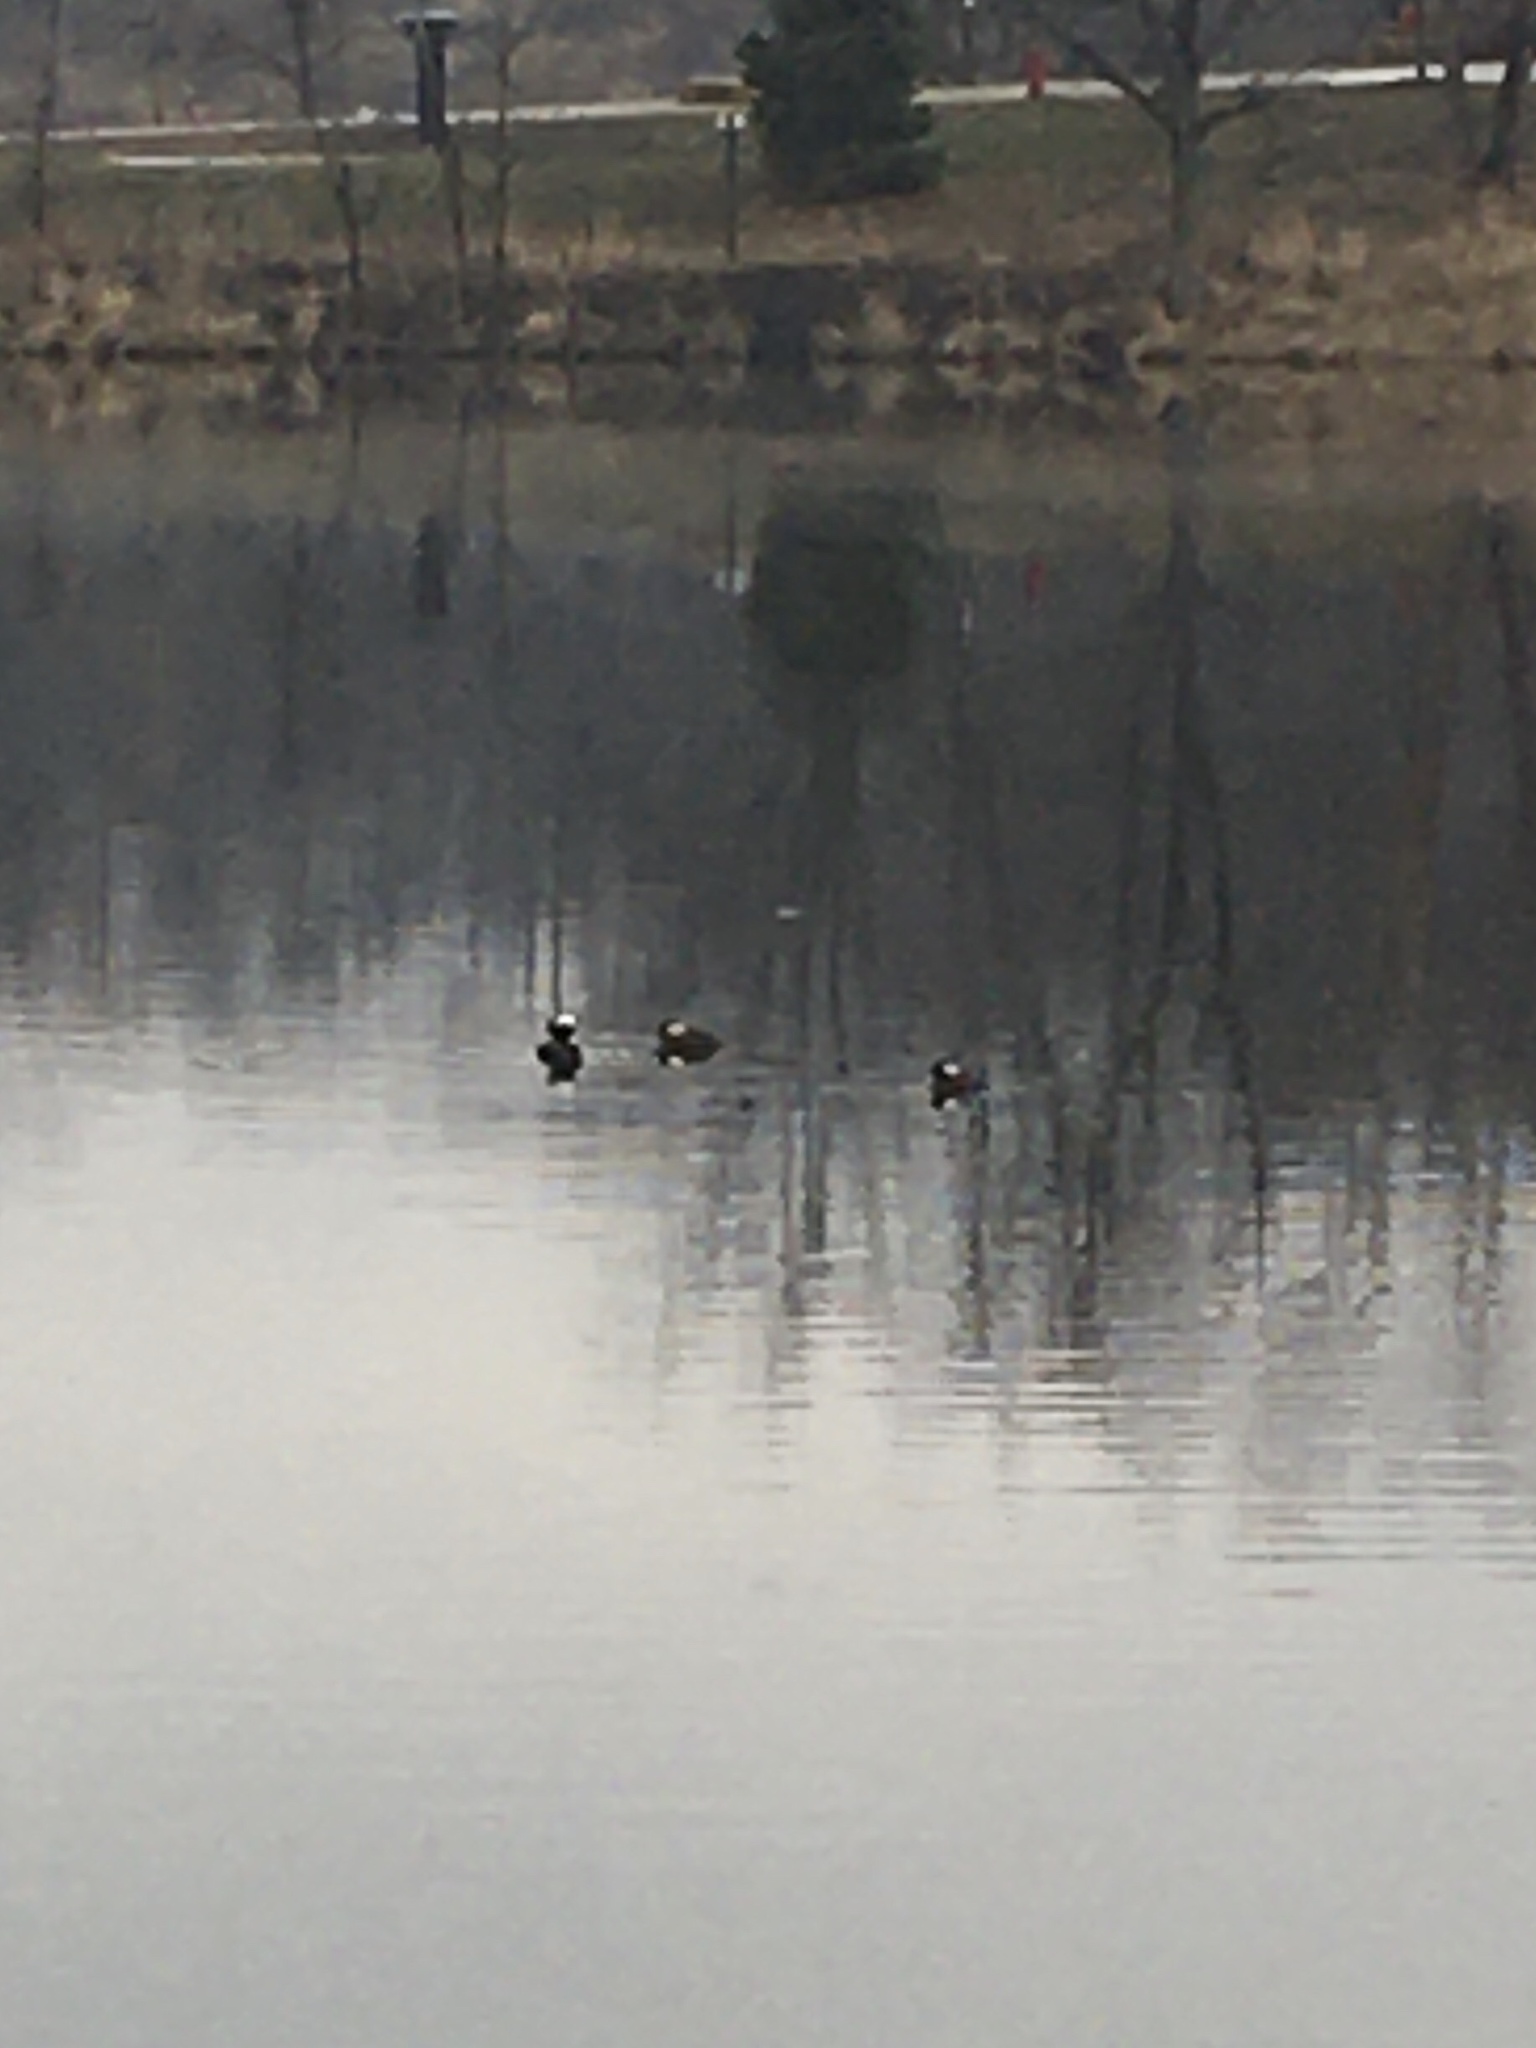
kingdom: Animalia
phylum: Chordata
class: Aves
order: Anseriformes
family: Anatidae
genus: Lophodytes
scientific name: Lophodytes cucullatus
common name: Hooded merganser
